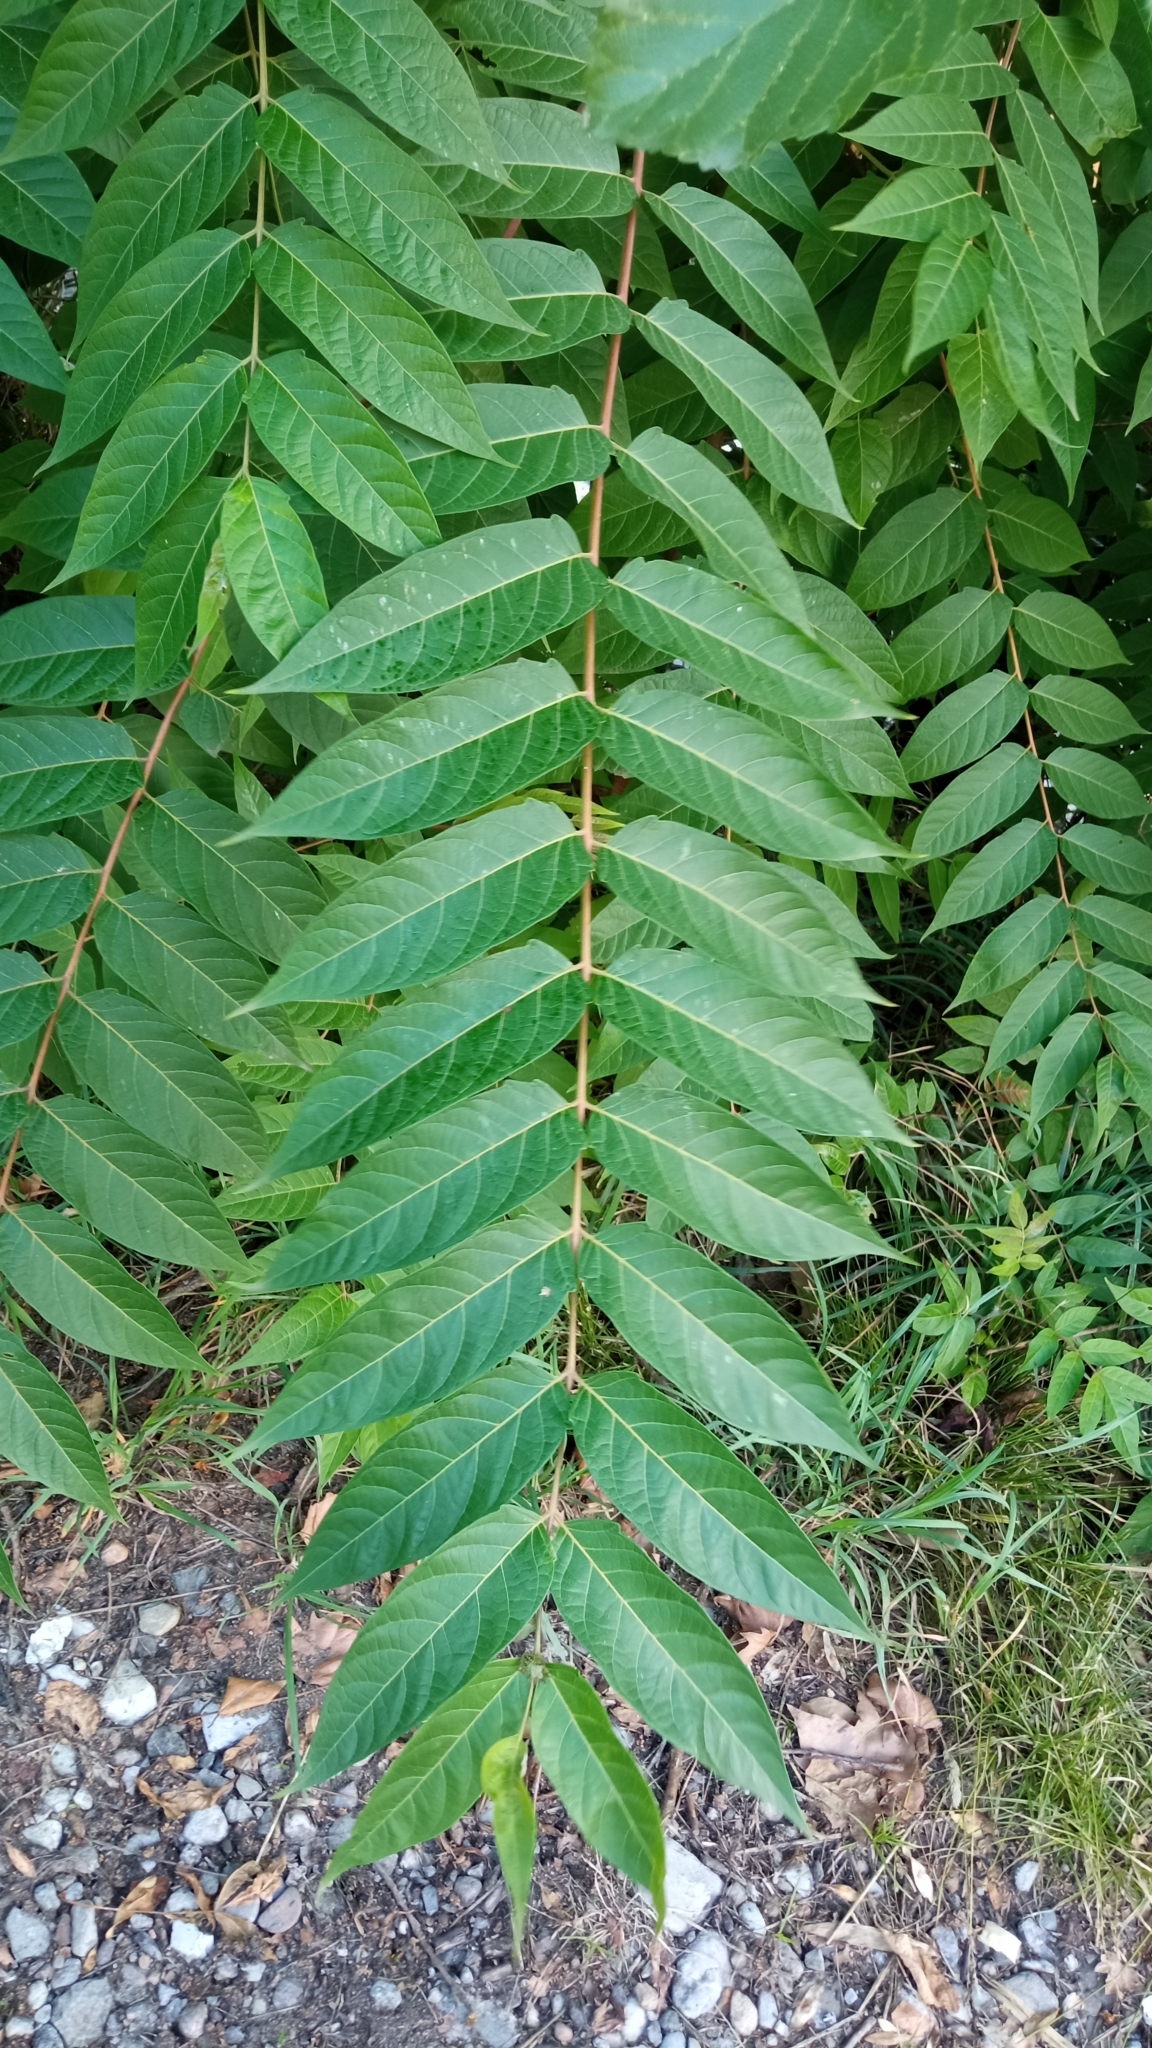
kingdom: Plantae
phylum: Tracheophyta
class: Magnoliopsida
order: Sapindales
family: Simaroubaceae
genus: Ailanthus
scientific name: Ailanthus altissima
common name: Tree-of-heaven
